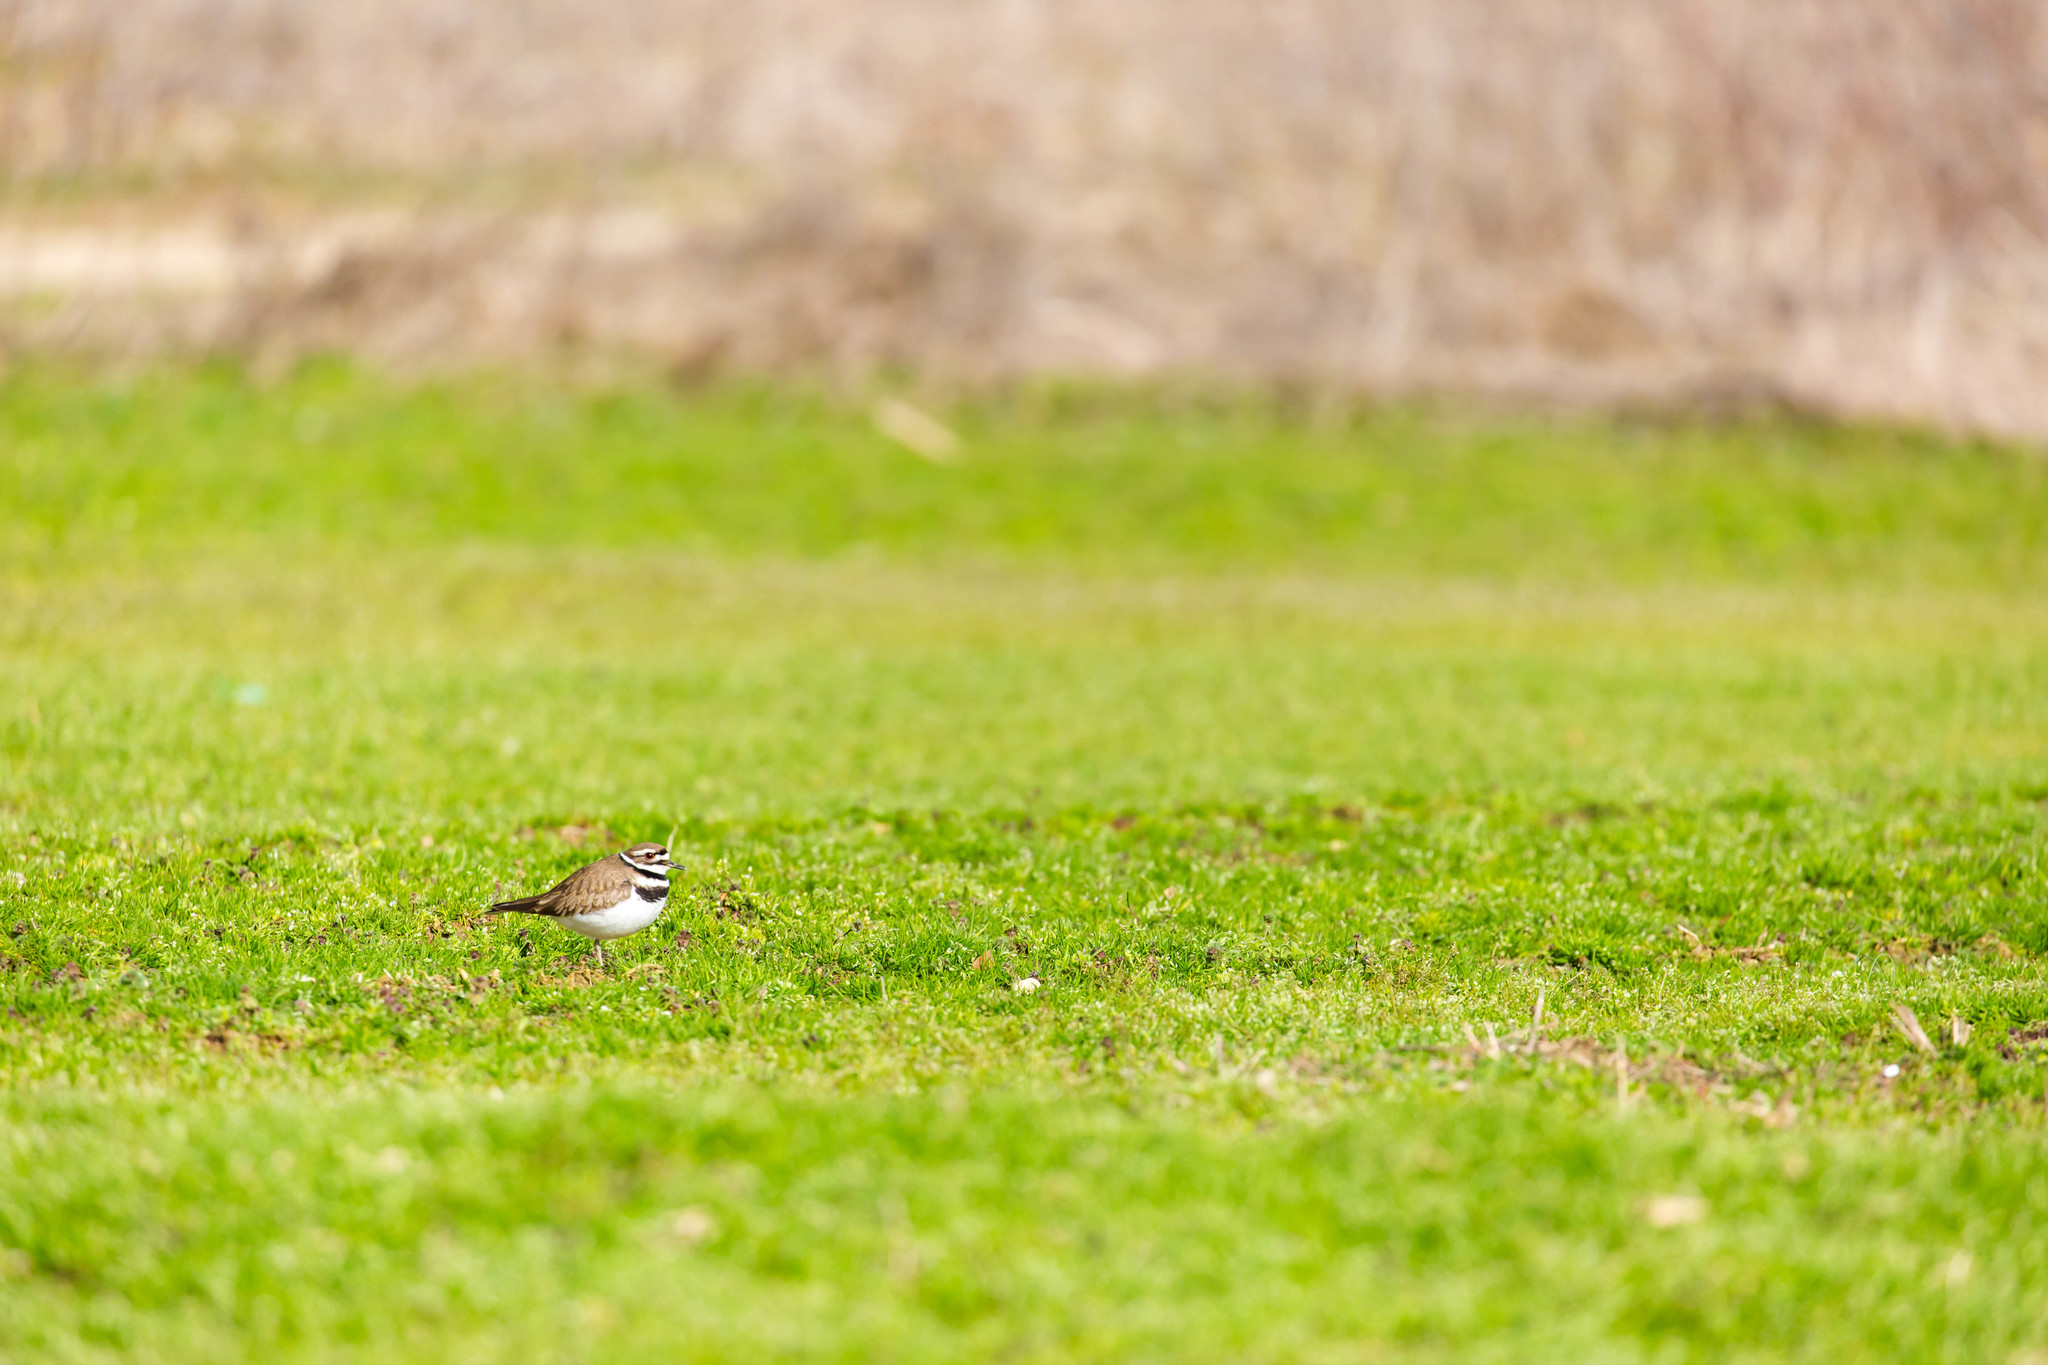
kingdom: Animalia
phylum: Chordata
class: Aves
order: Charadriiformes
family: Charadriidae
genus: Charadrius
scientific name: Charadrius vociferus
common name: Killdeer
